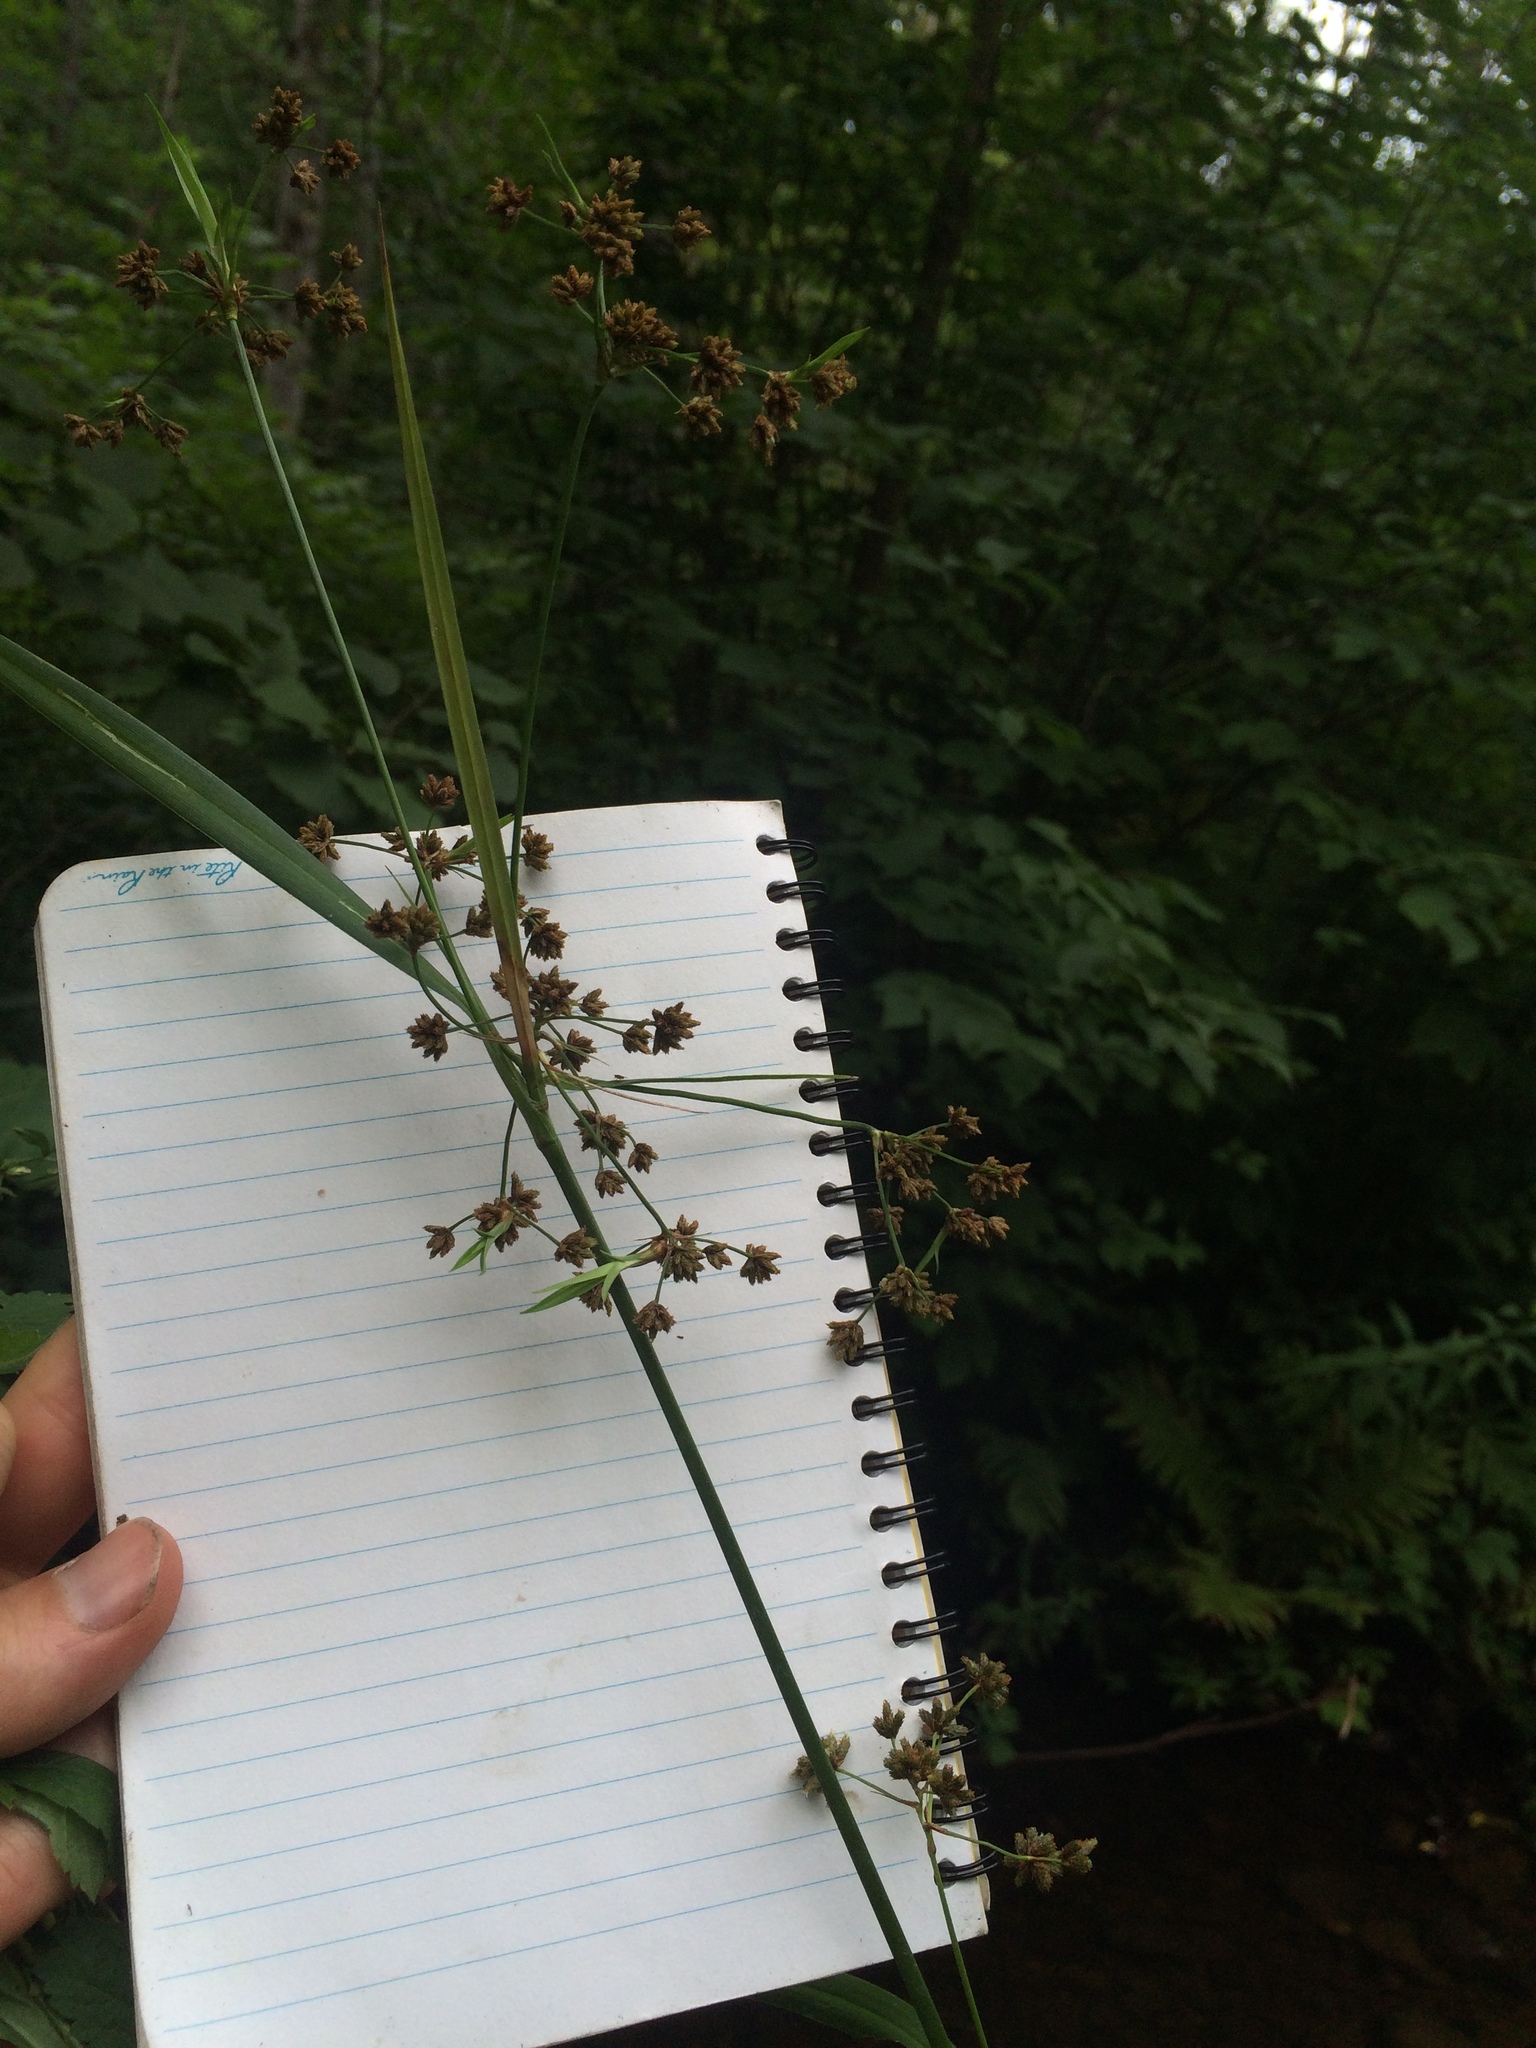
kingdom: Plantae
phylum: Tracheophyta
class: Liliopsida
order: Poales
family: Cyperaceae
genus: Scirpus
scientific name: Scirpus atrovirens
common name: Black bulrush
